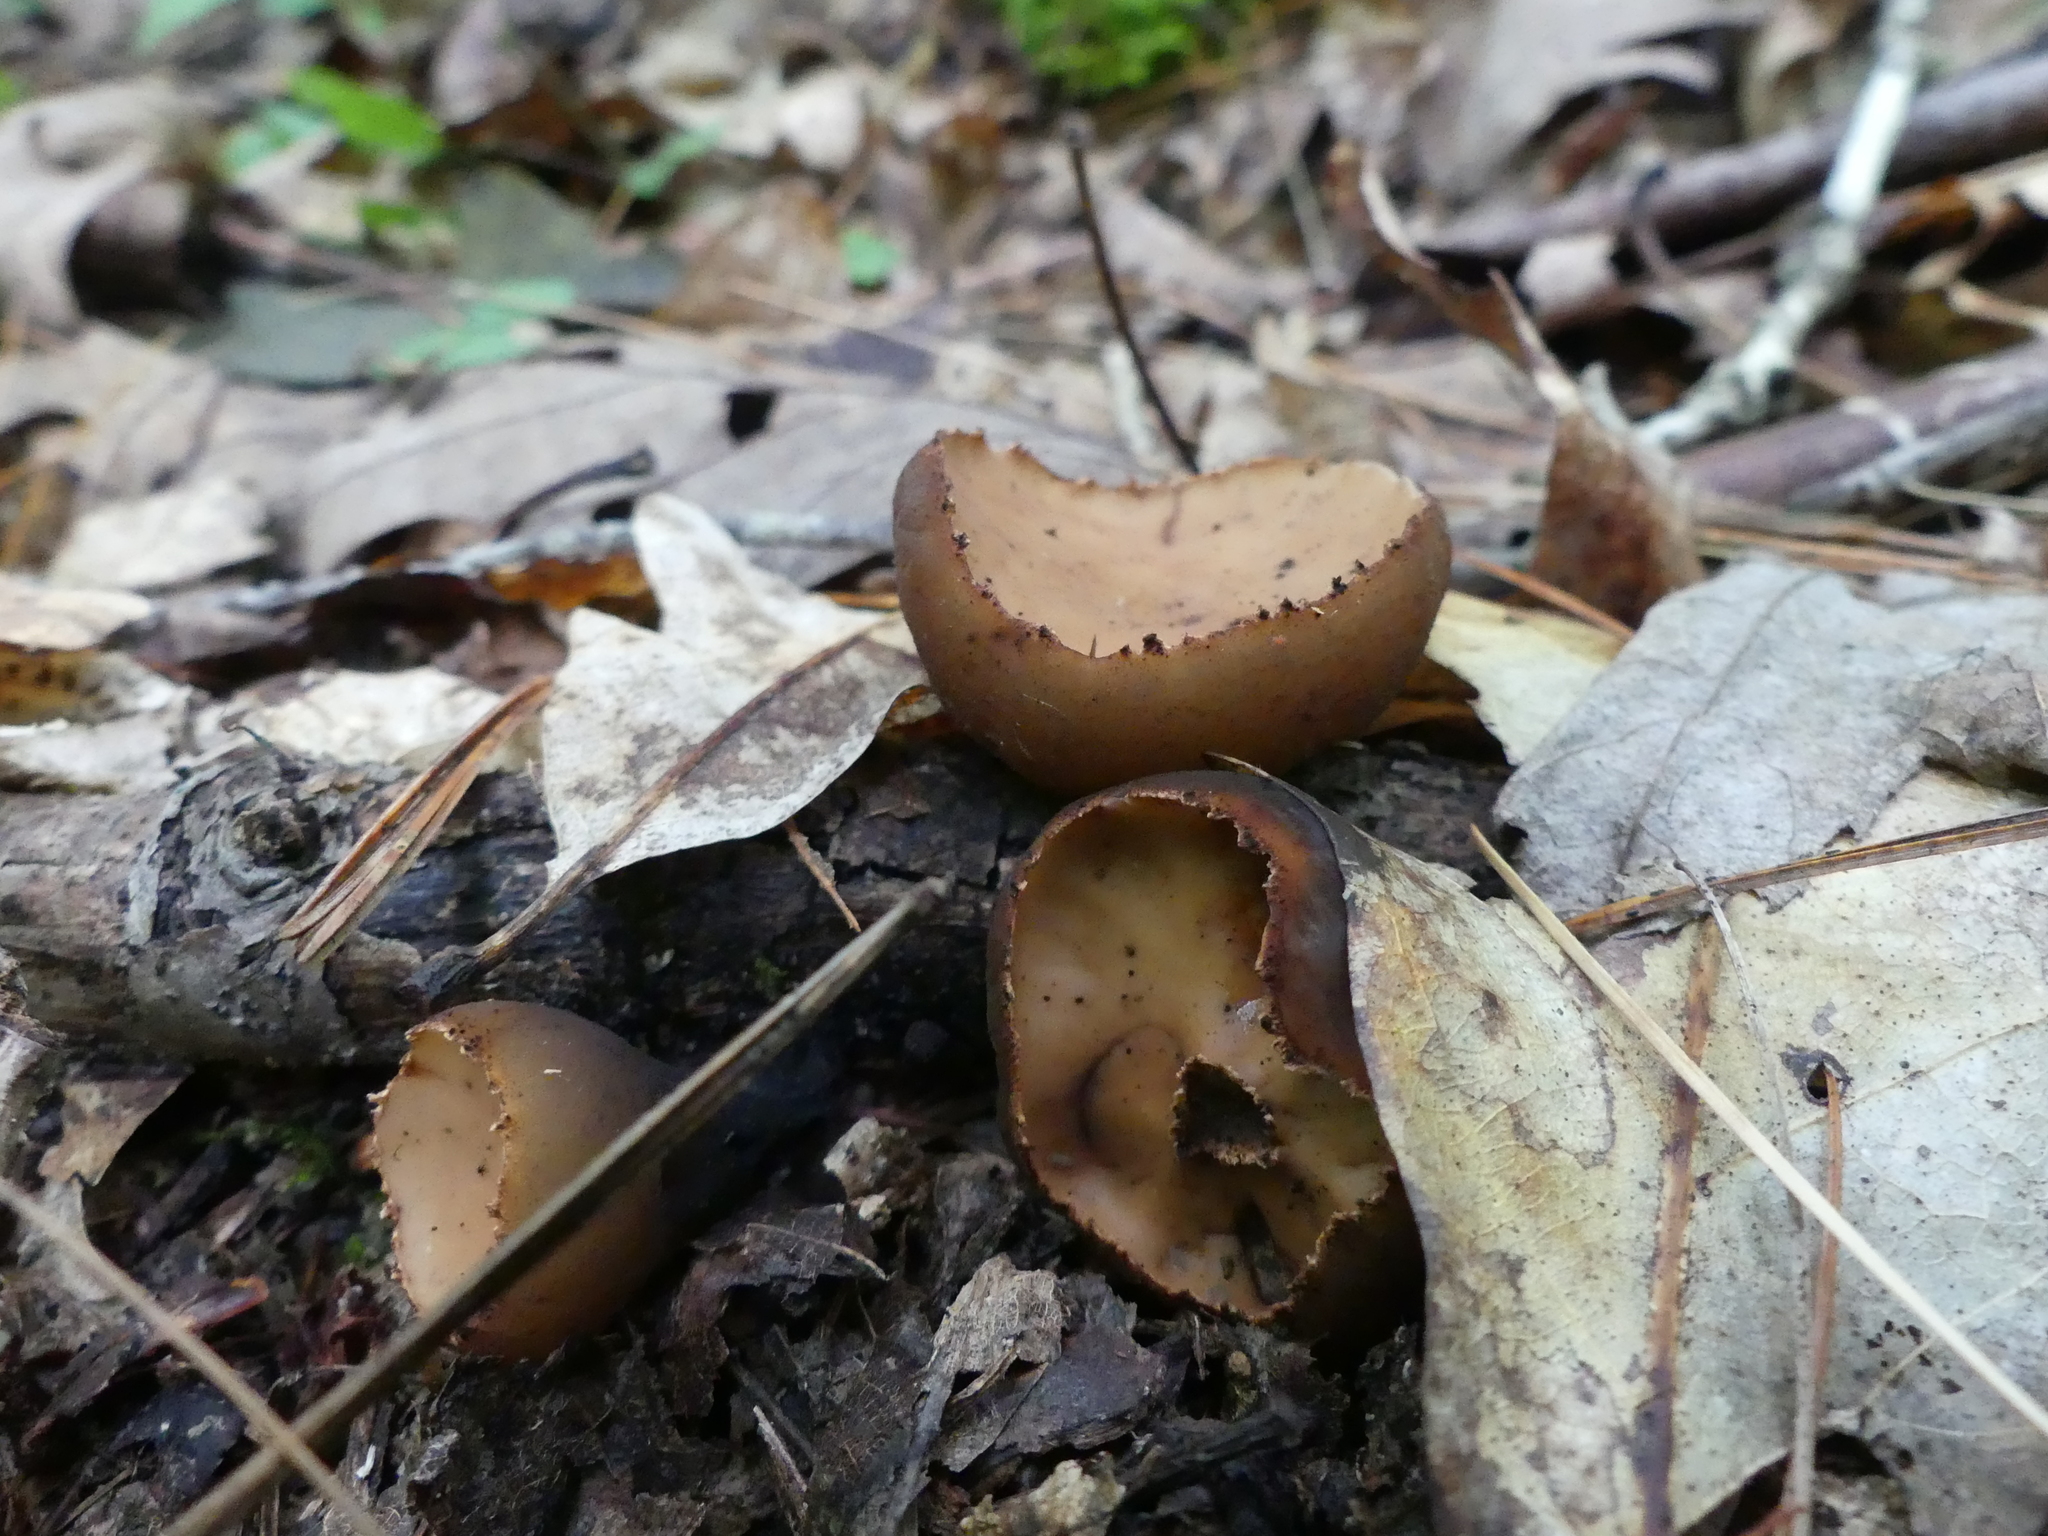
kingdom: Fungi
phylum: Ascomycota
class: Pezizomycetes
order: Pezizales
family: Sarcosomataceae
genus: Galiella
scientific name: Galiella rufa
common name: Hairy rubber cup
